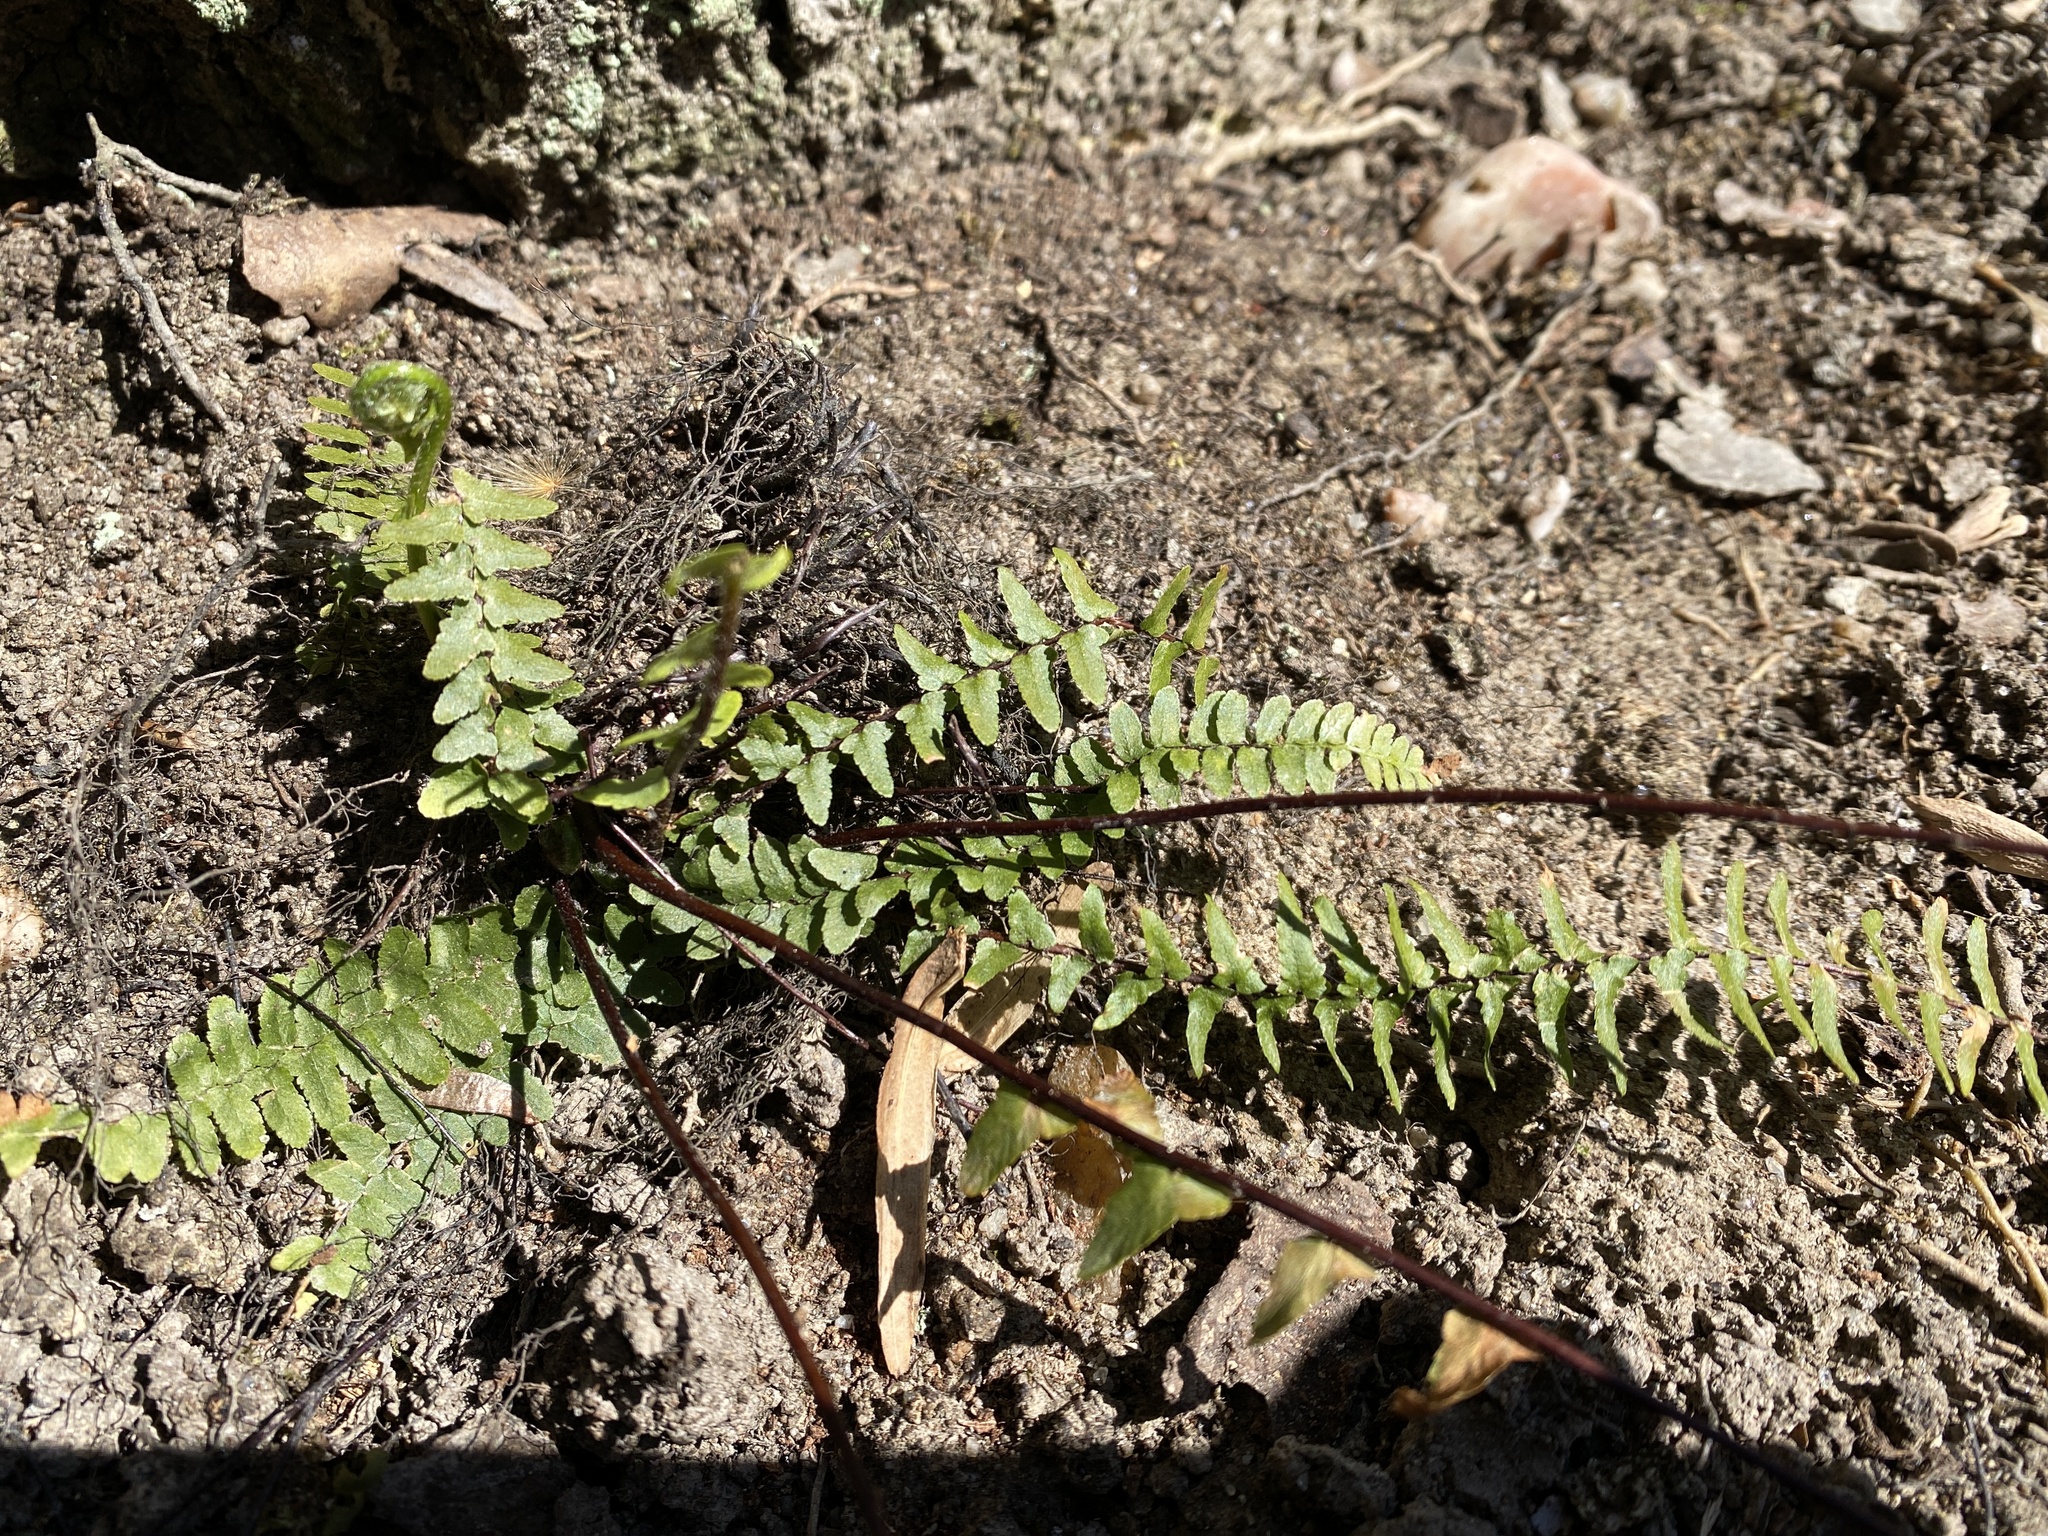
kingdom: Plantae
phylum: Tracheophyta
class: Polypodiopsida
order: Polypodiales
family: Aspleniaceae
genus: Asplenium
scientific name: Asplenium platyneuron
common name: Ebony spleenwort
